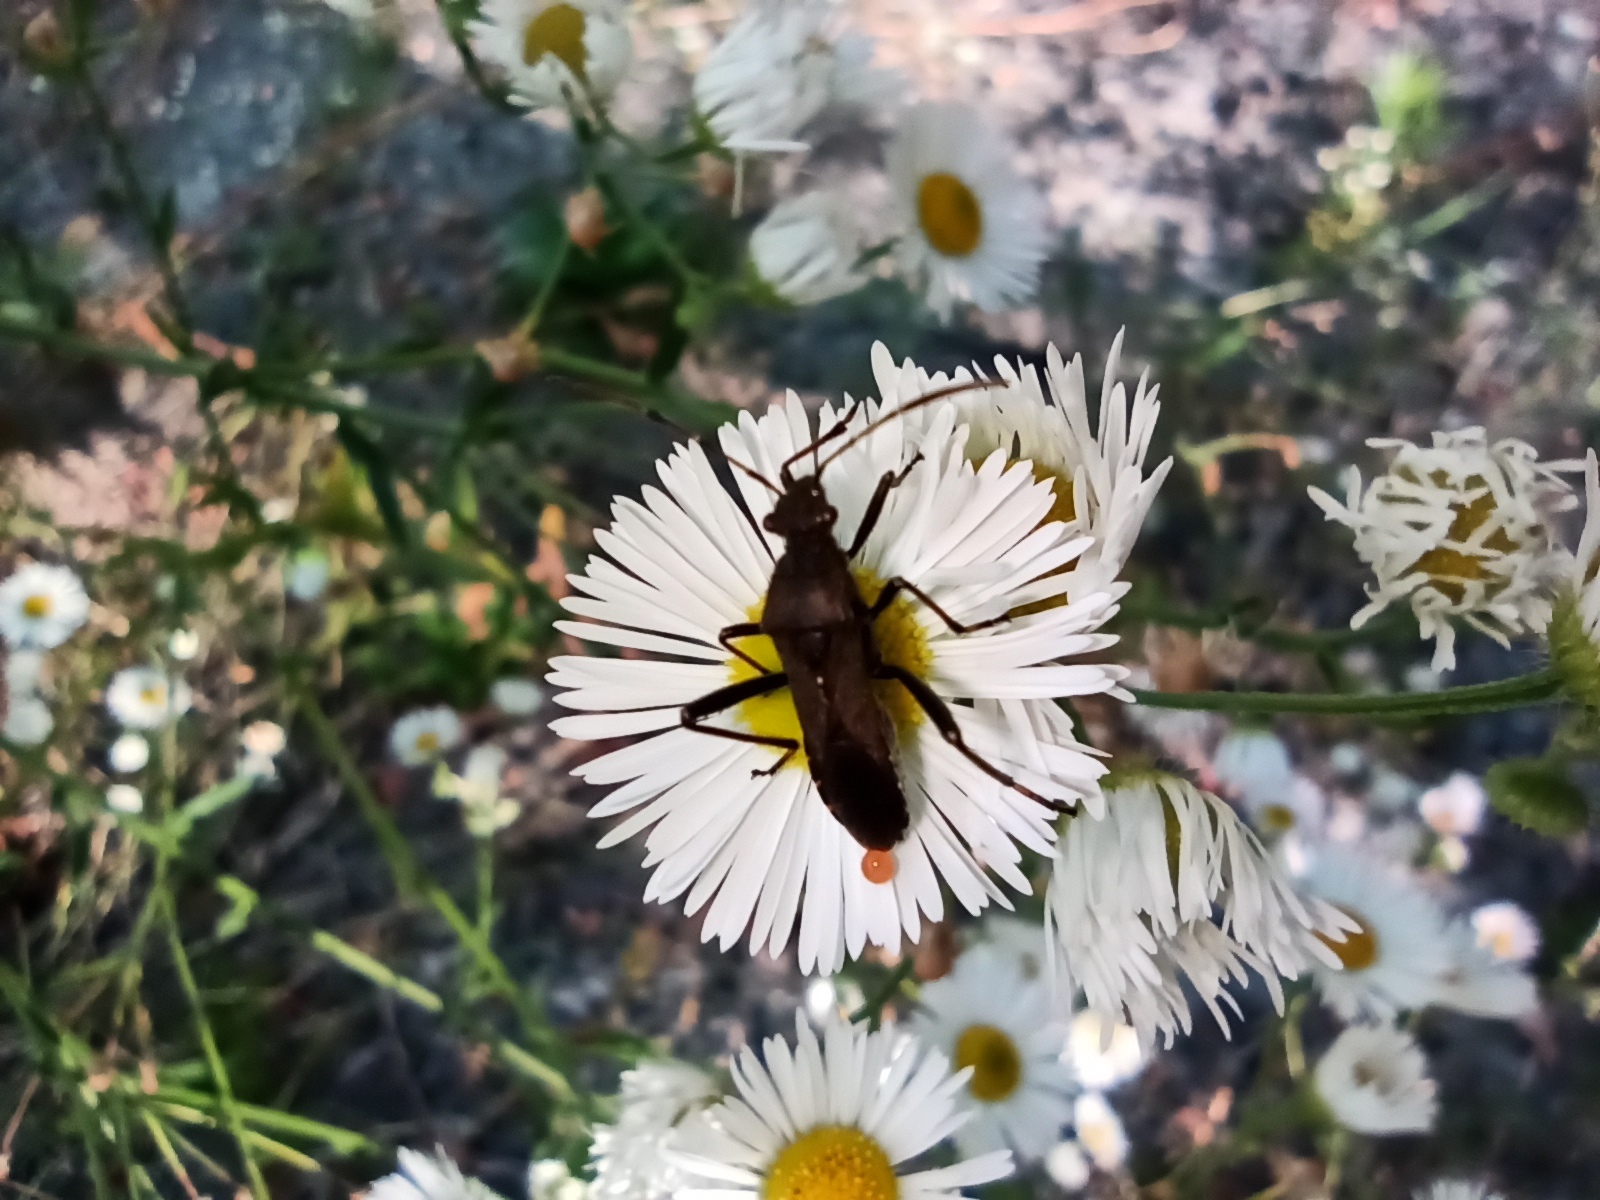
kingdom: Animalia
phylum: Arthropoda
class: Insecta
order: Hemiptera
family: Alydidae
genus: Alydus
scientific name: Alydus calcaratus
